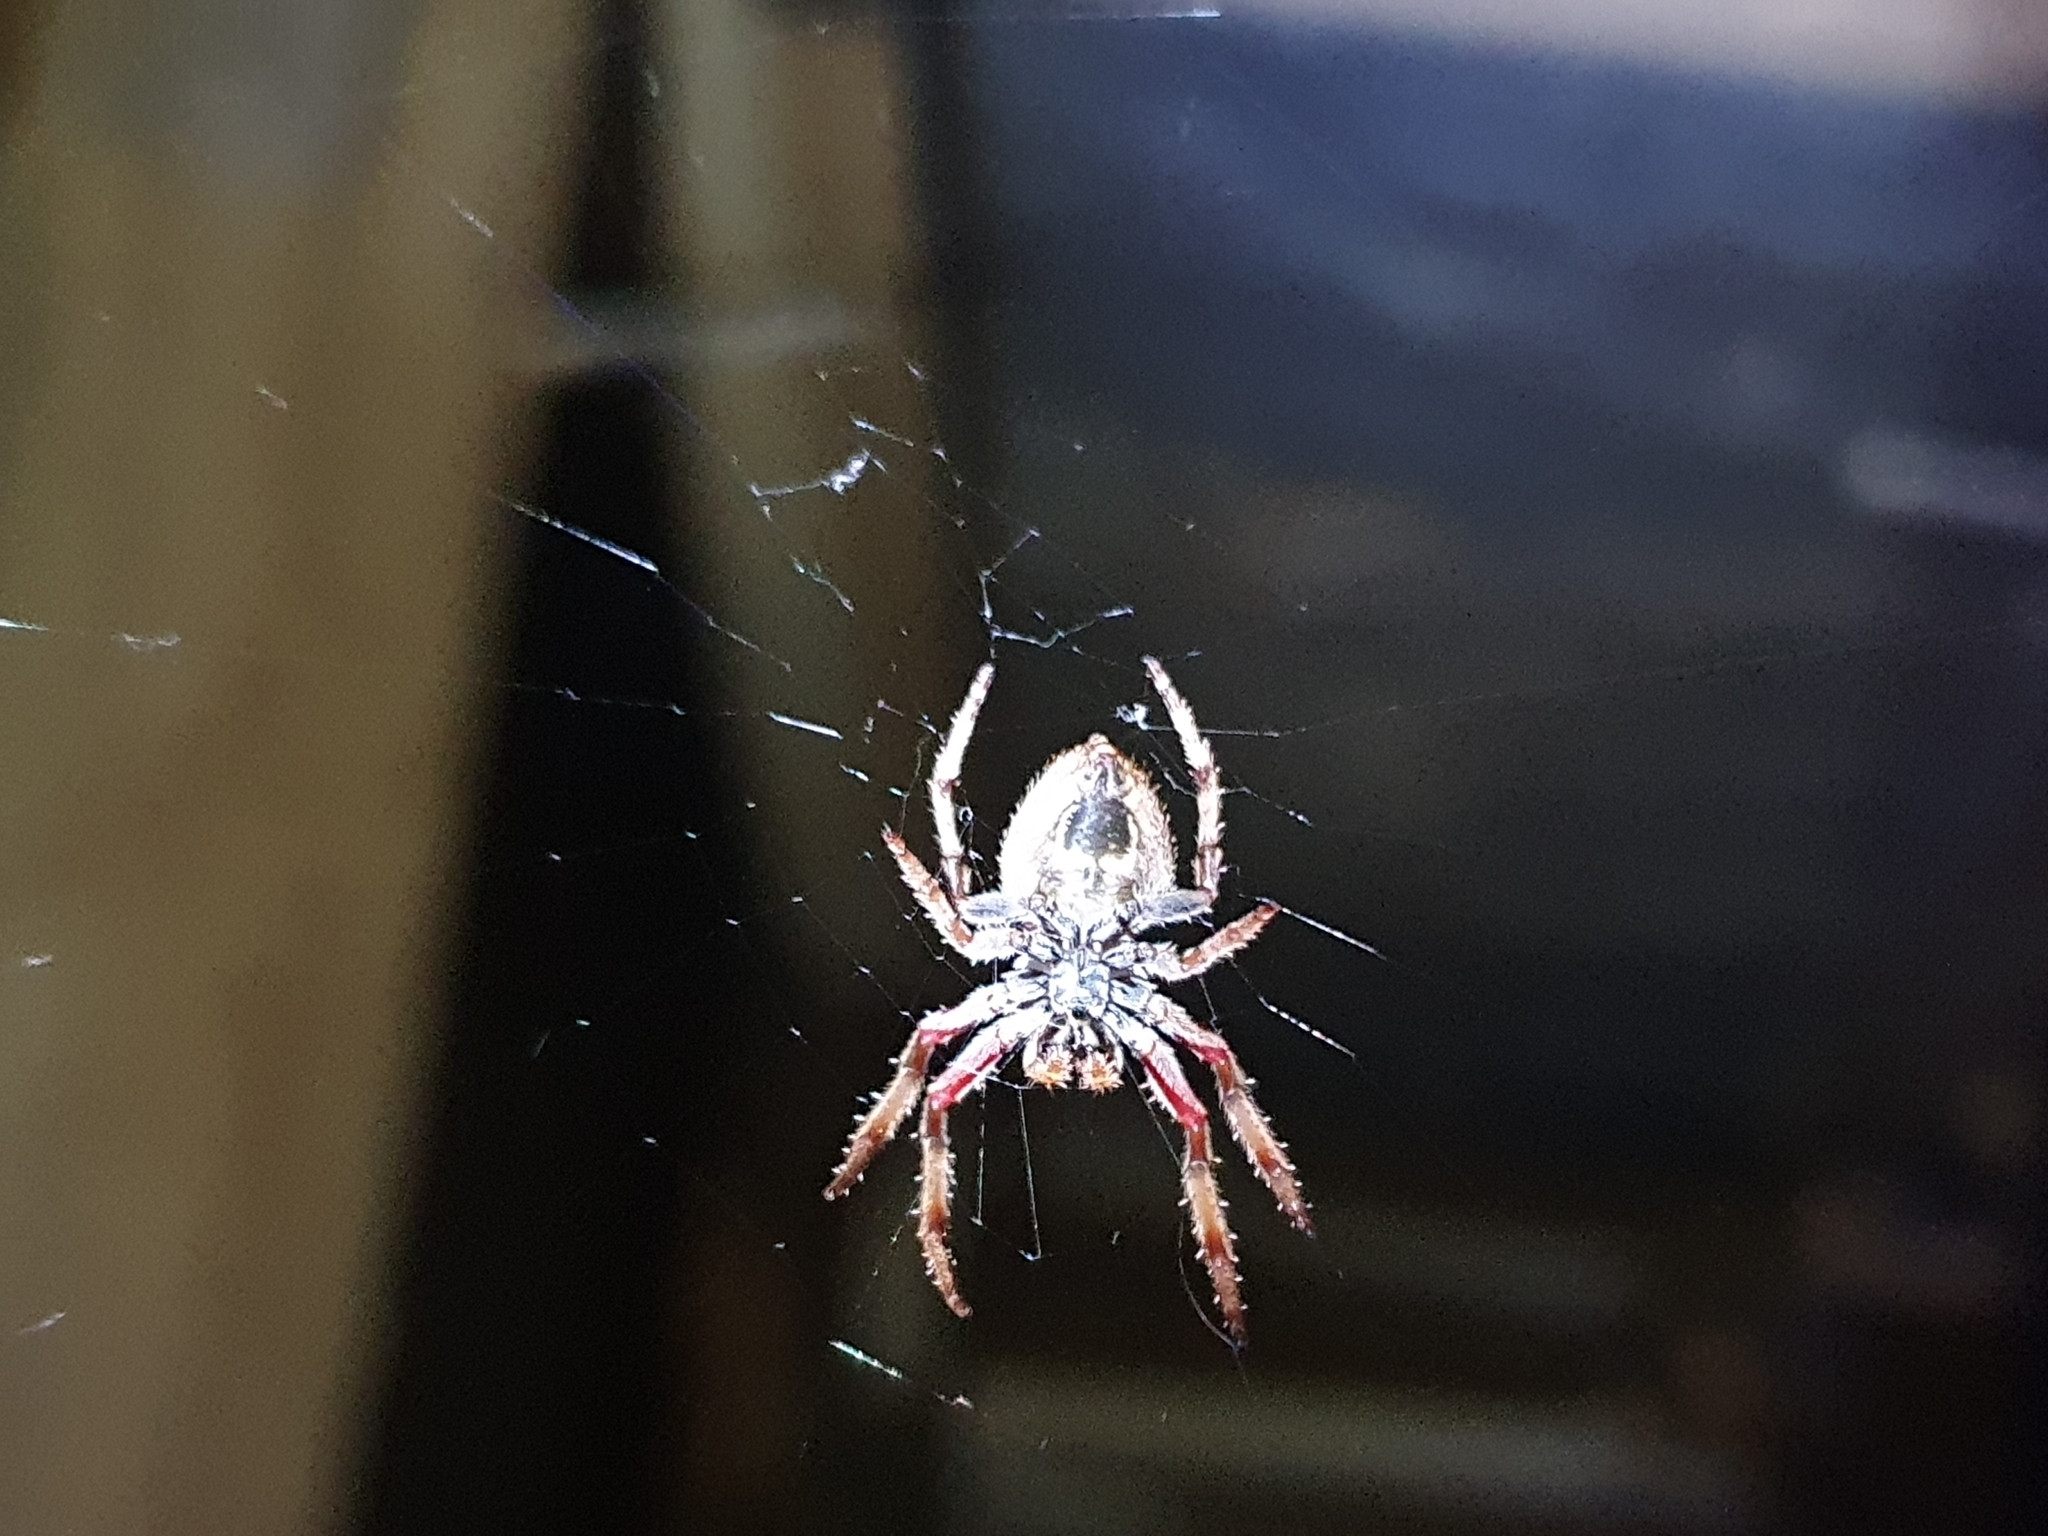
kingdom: Animalia
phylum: Arthropoda
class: Arachnida
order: Araneae
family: Araneidae
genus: Eriophora
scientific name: Eriophora pustulosa
